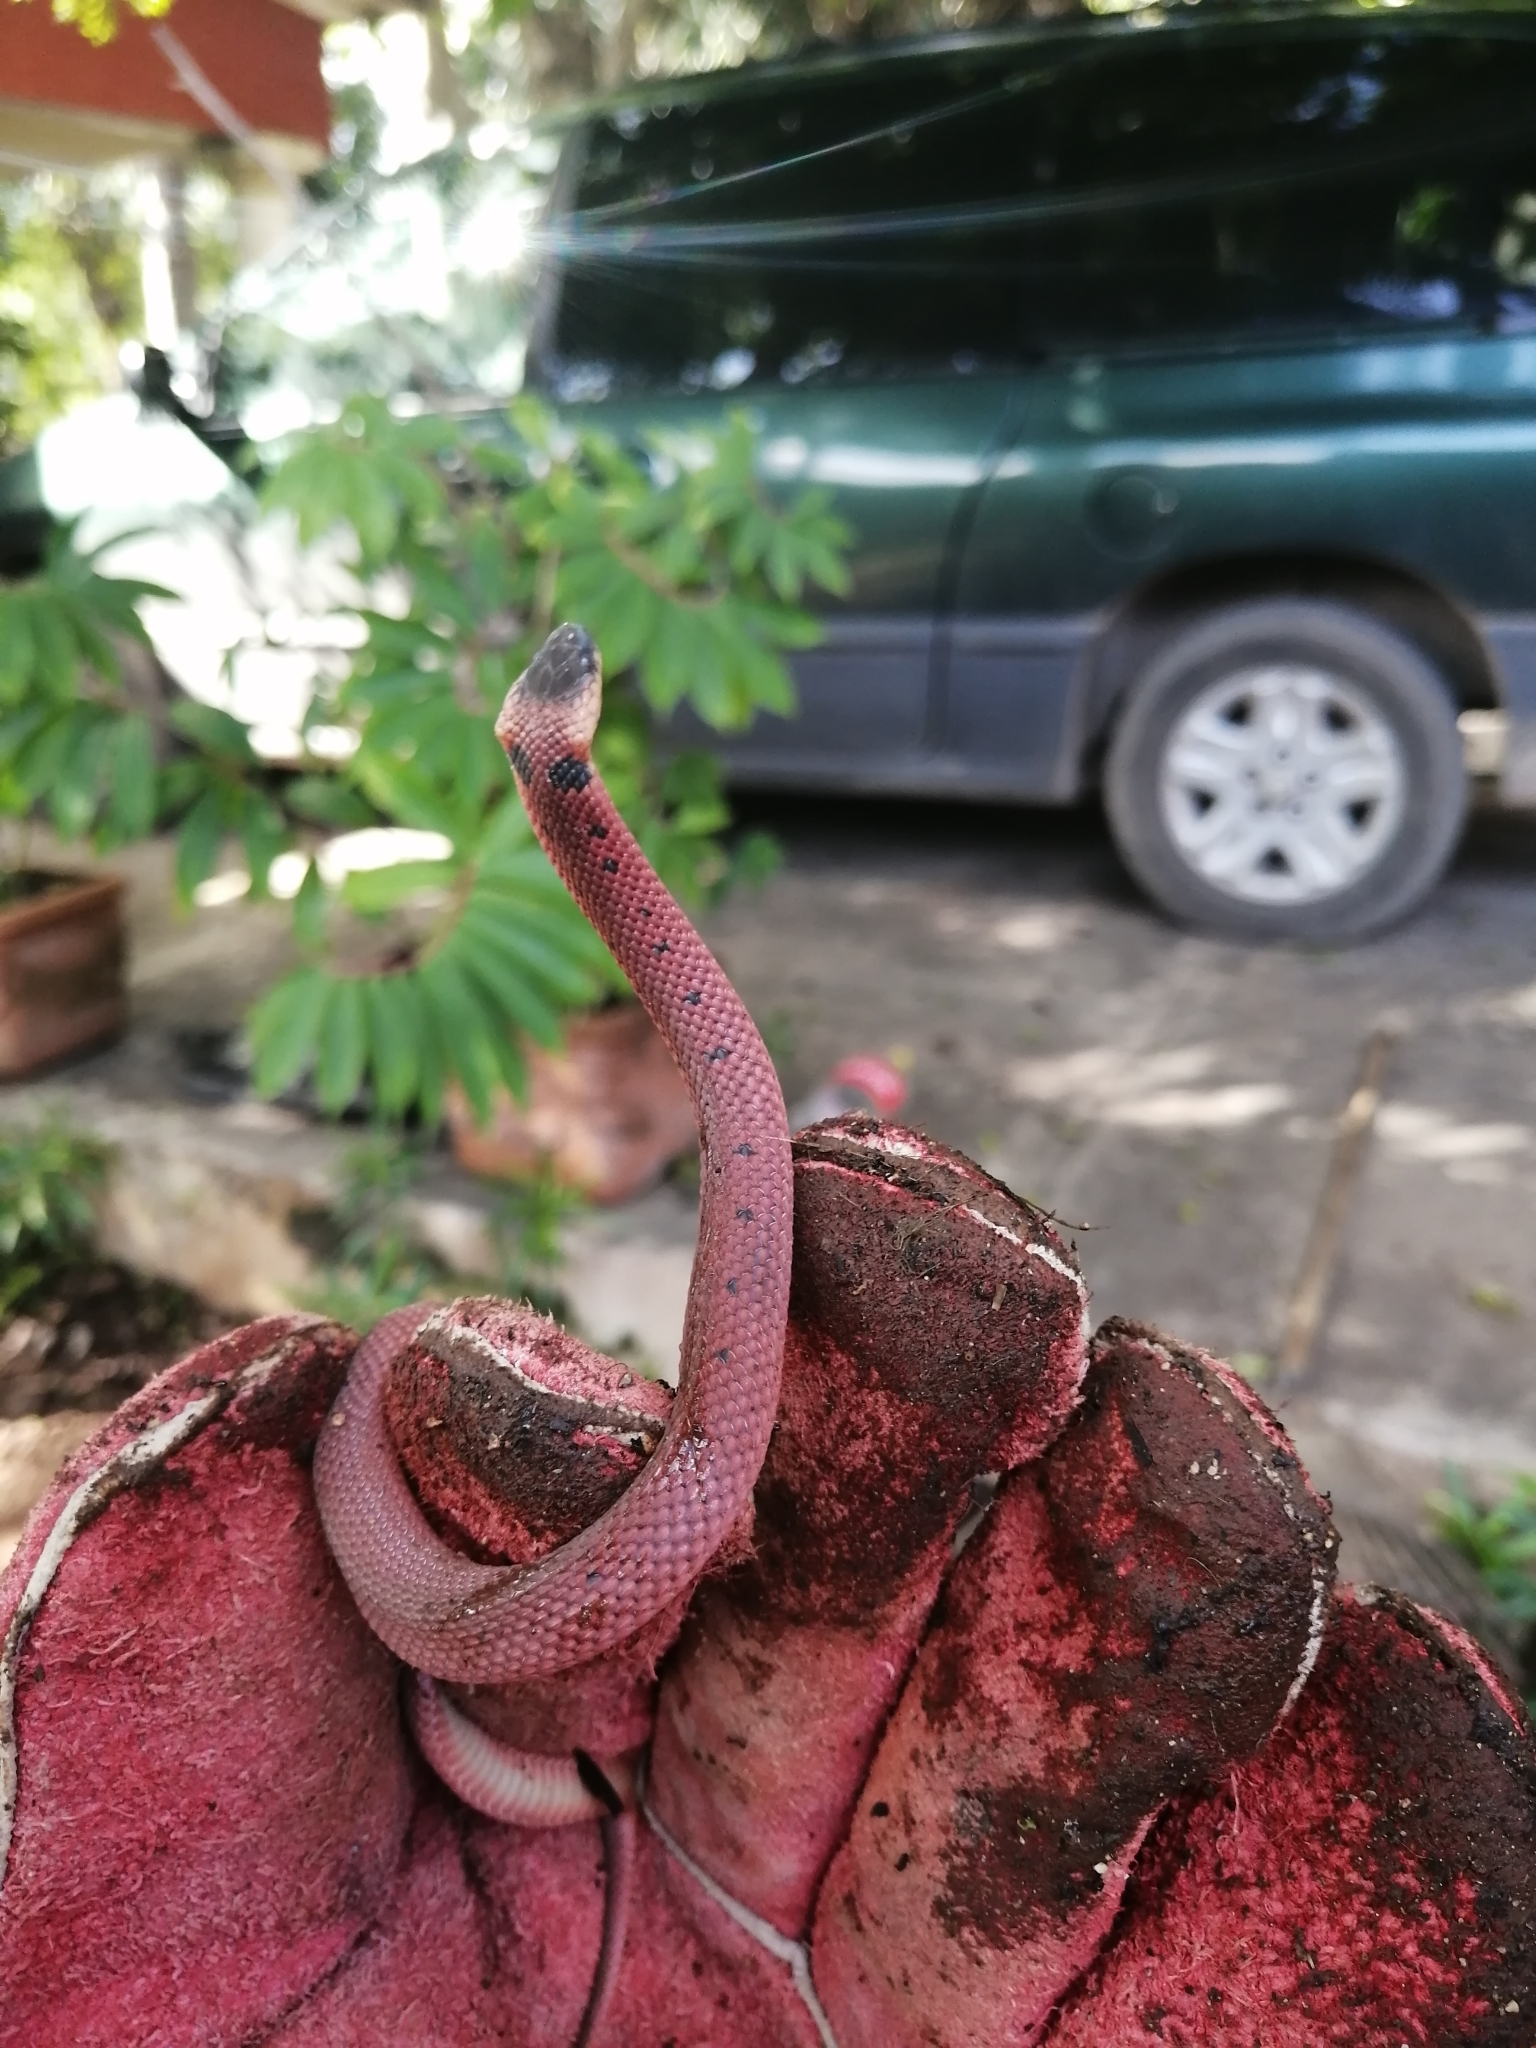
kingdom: Animalia
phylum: Chordata
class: Squamata
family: Colubridae
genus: Ninia
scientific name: Ninia sebae
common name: Redback coffee snake
